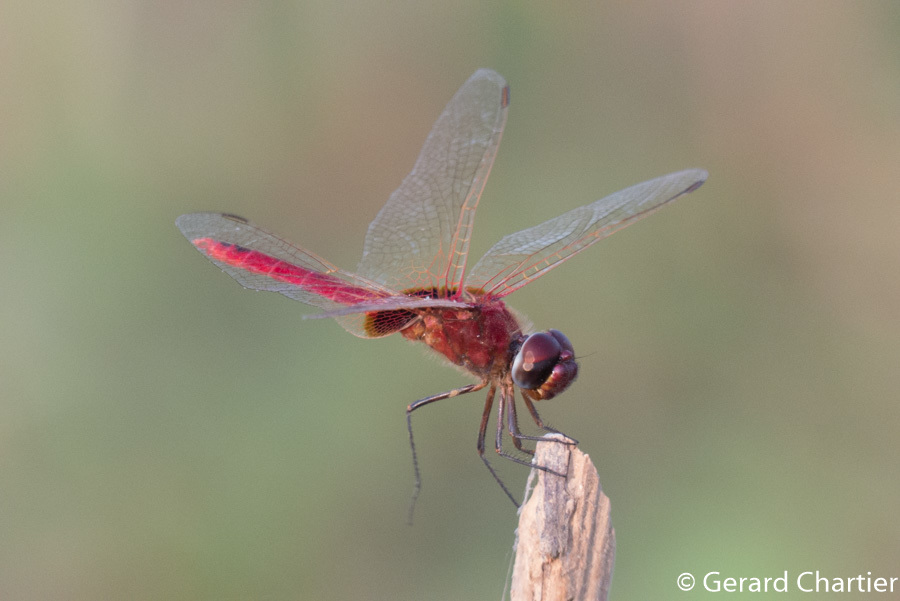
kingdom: Animalia
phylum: Arthropoda
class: Insecta
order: Odonata
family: Libellulidae
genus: Urothemis
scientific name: Urothemis signata
